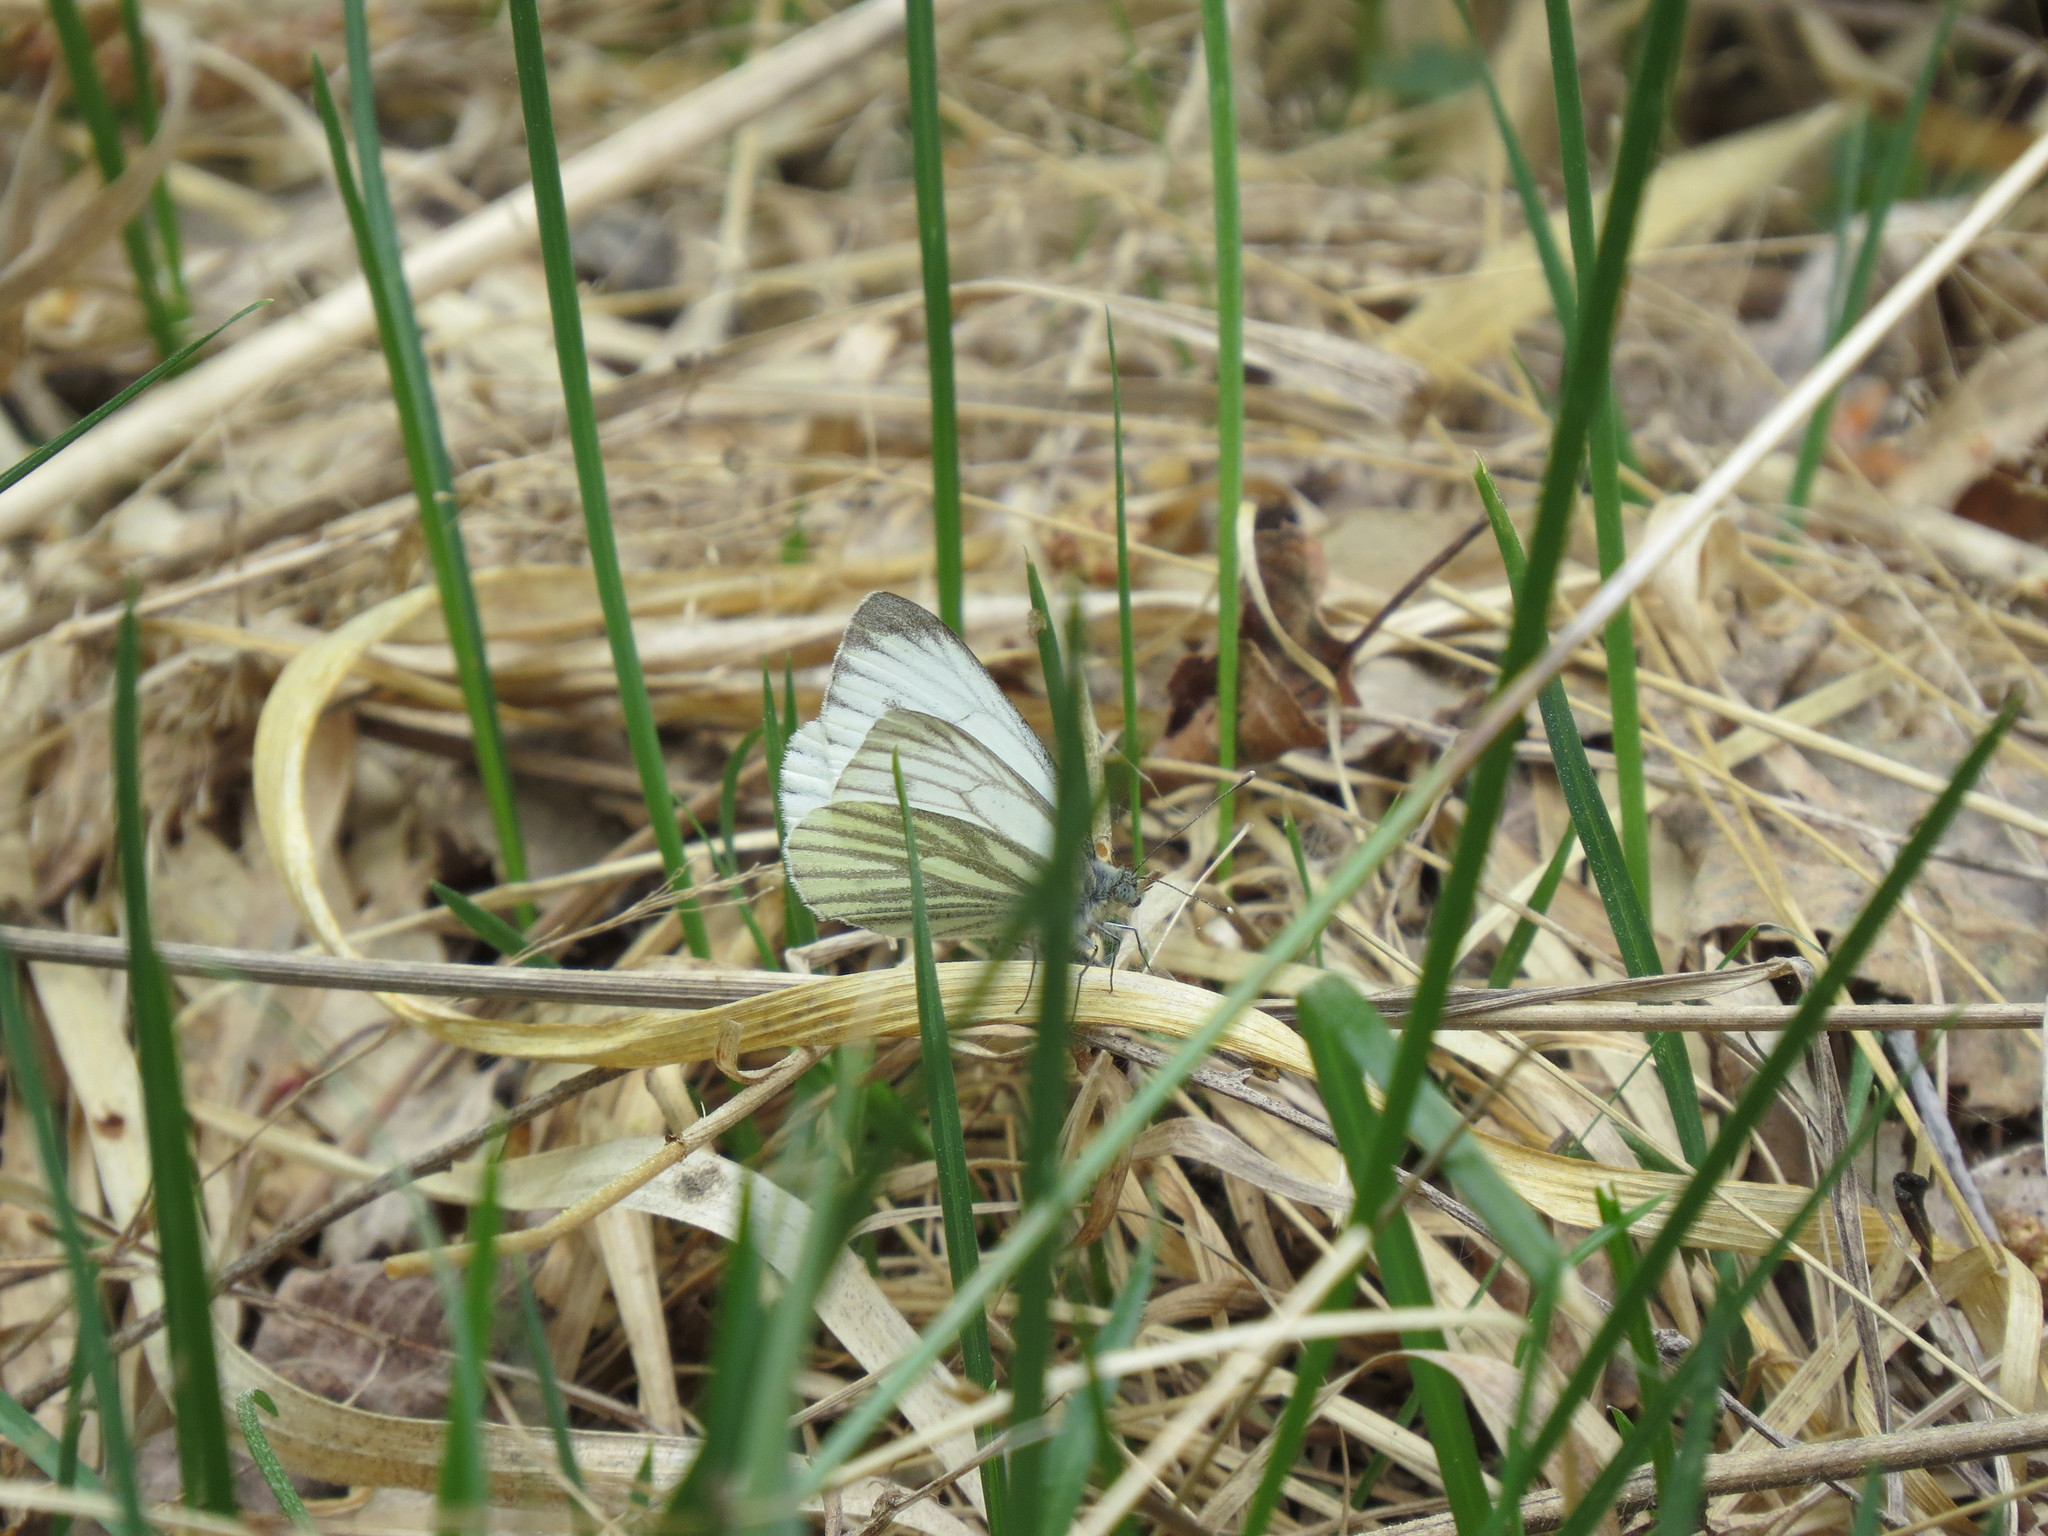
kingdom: Animalia
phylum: Arthropoda
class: Insecta
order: Lepidoptera
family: Pieridae
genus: Pieris
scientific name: Pieris napi
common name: Green-veined white
